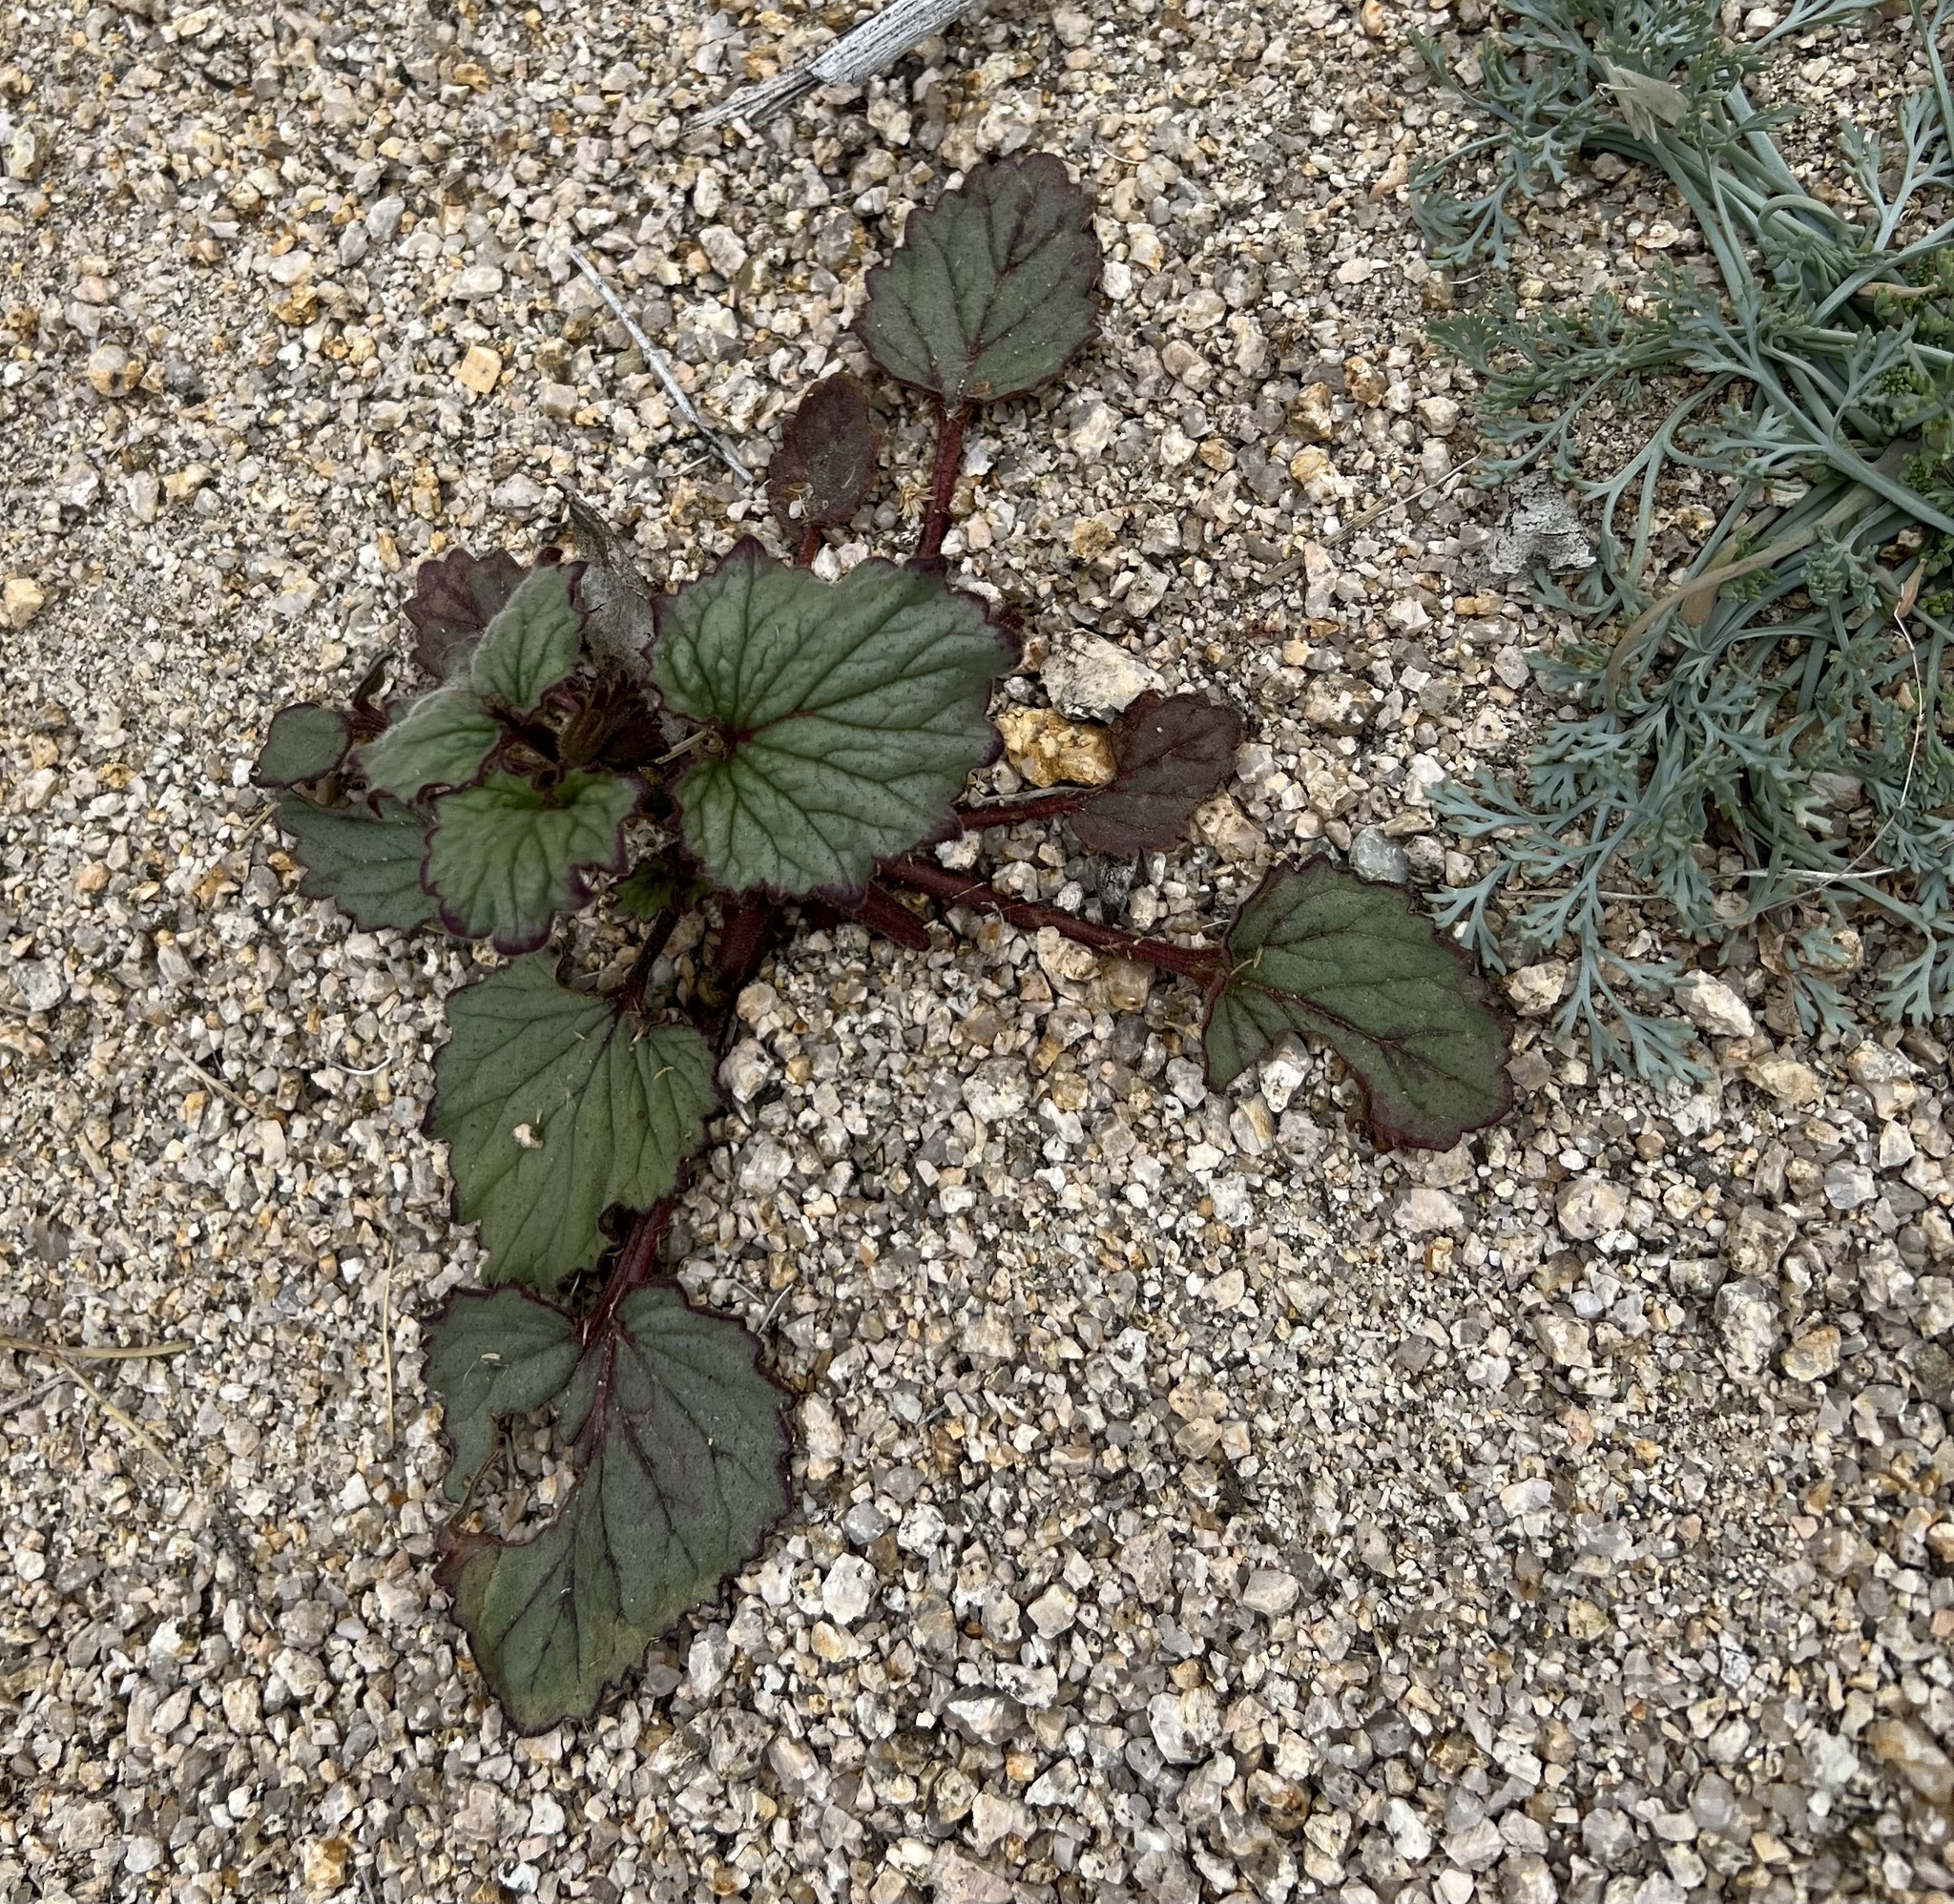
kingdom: Plantae
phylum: Tracheophyta
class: Magnoliopsida
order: Boraginales
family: Hydrophyllaceae
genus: Phacelia
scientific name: Phacelia campanularia
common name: California bluebell
